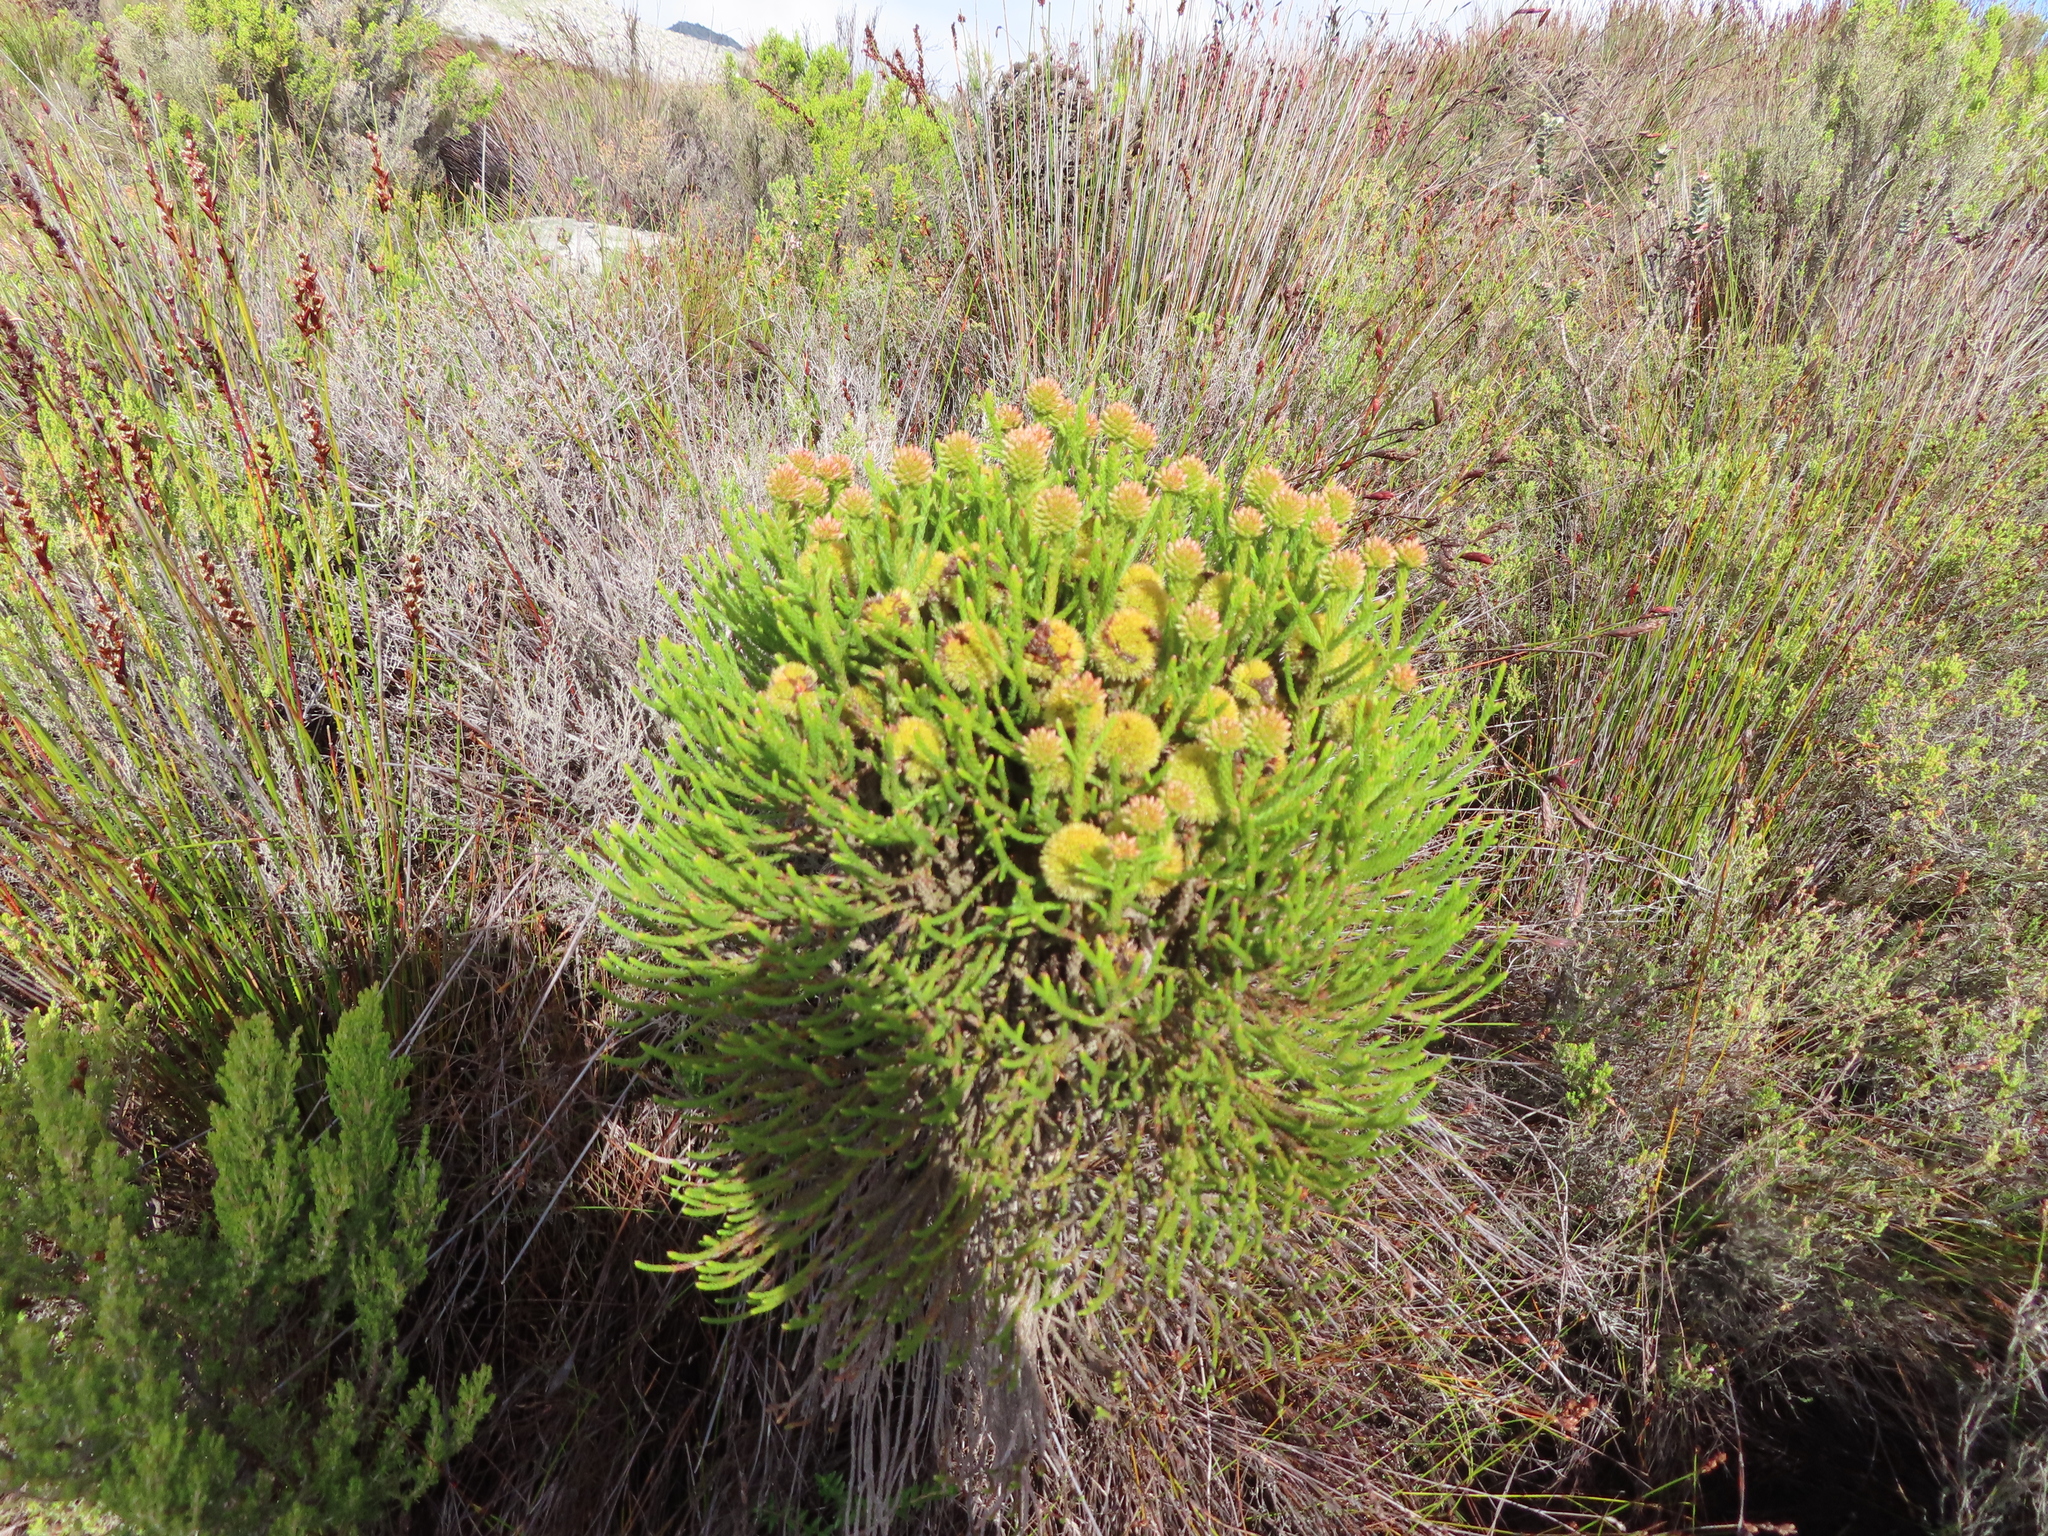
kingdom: Plantae
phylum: Tracheophyta
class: Magnoliopsida
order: Bruniales
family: Bruniaceae
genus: Brunia
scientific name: Brunia fragarioides
